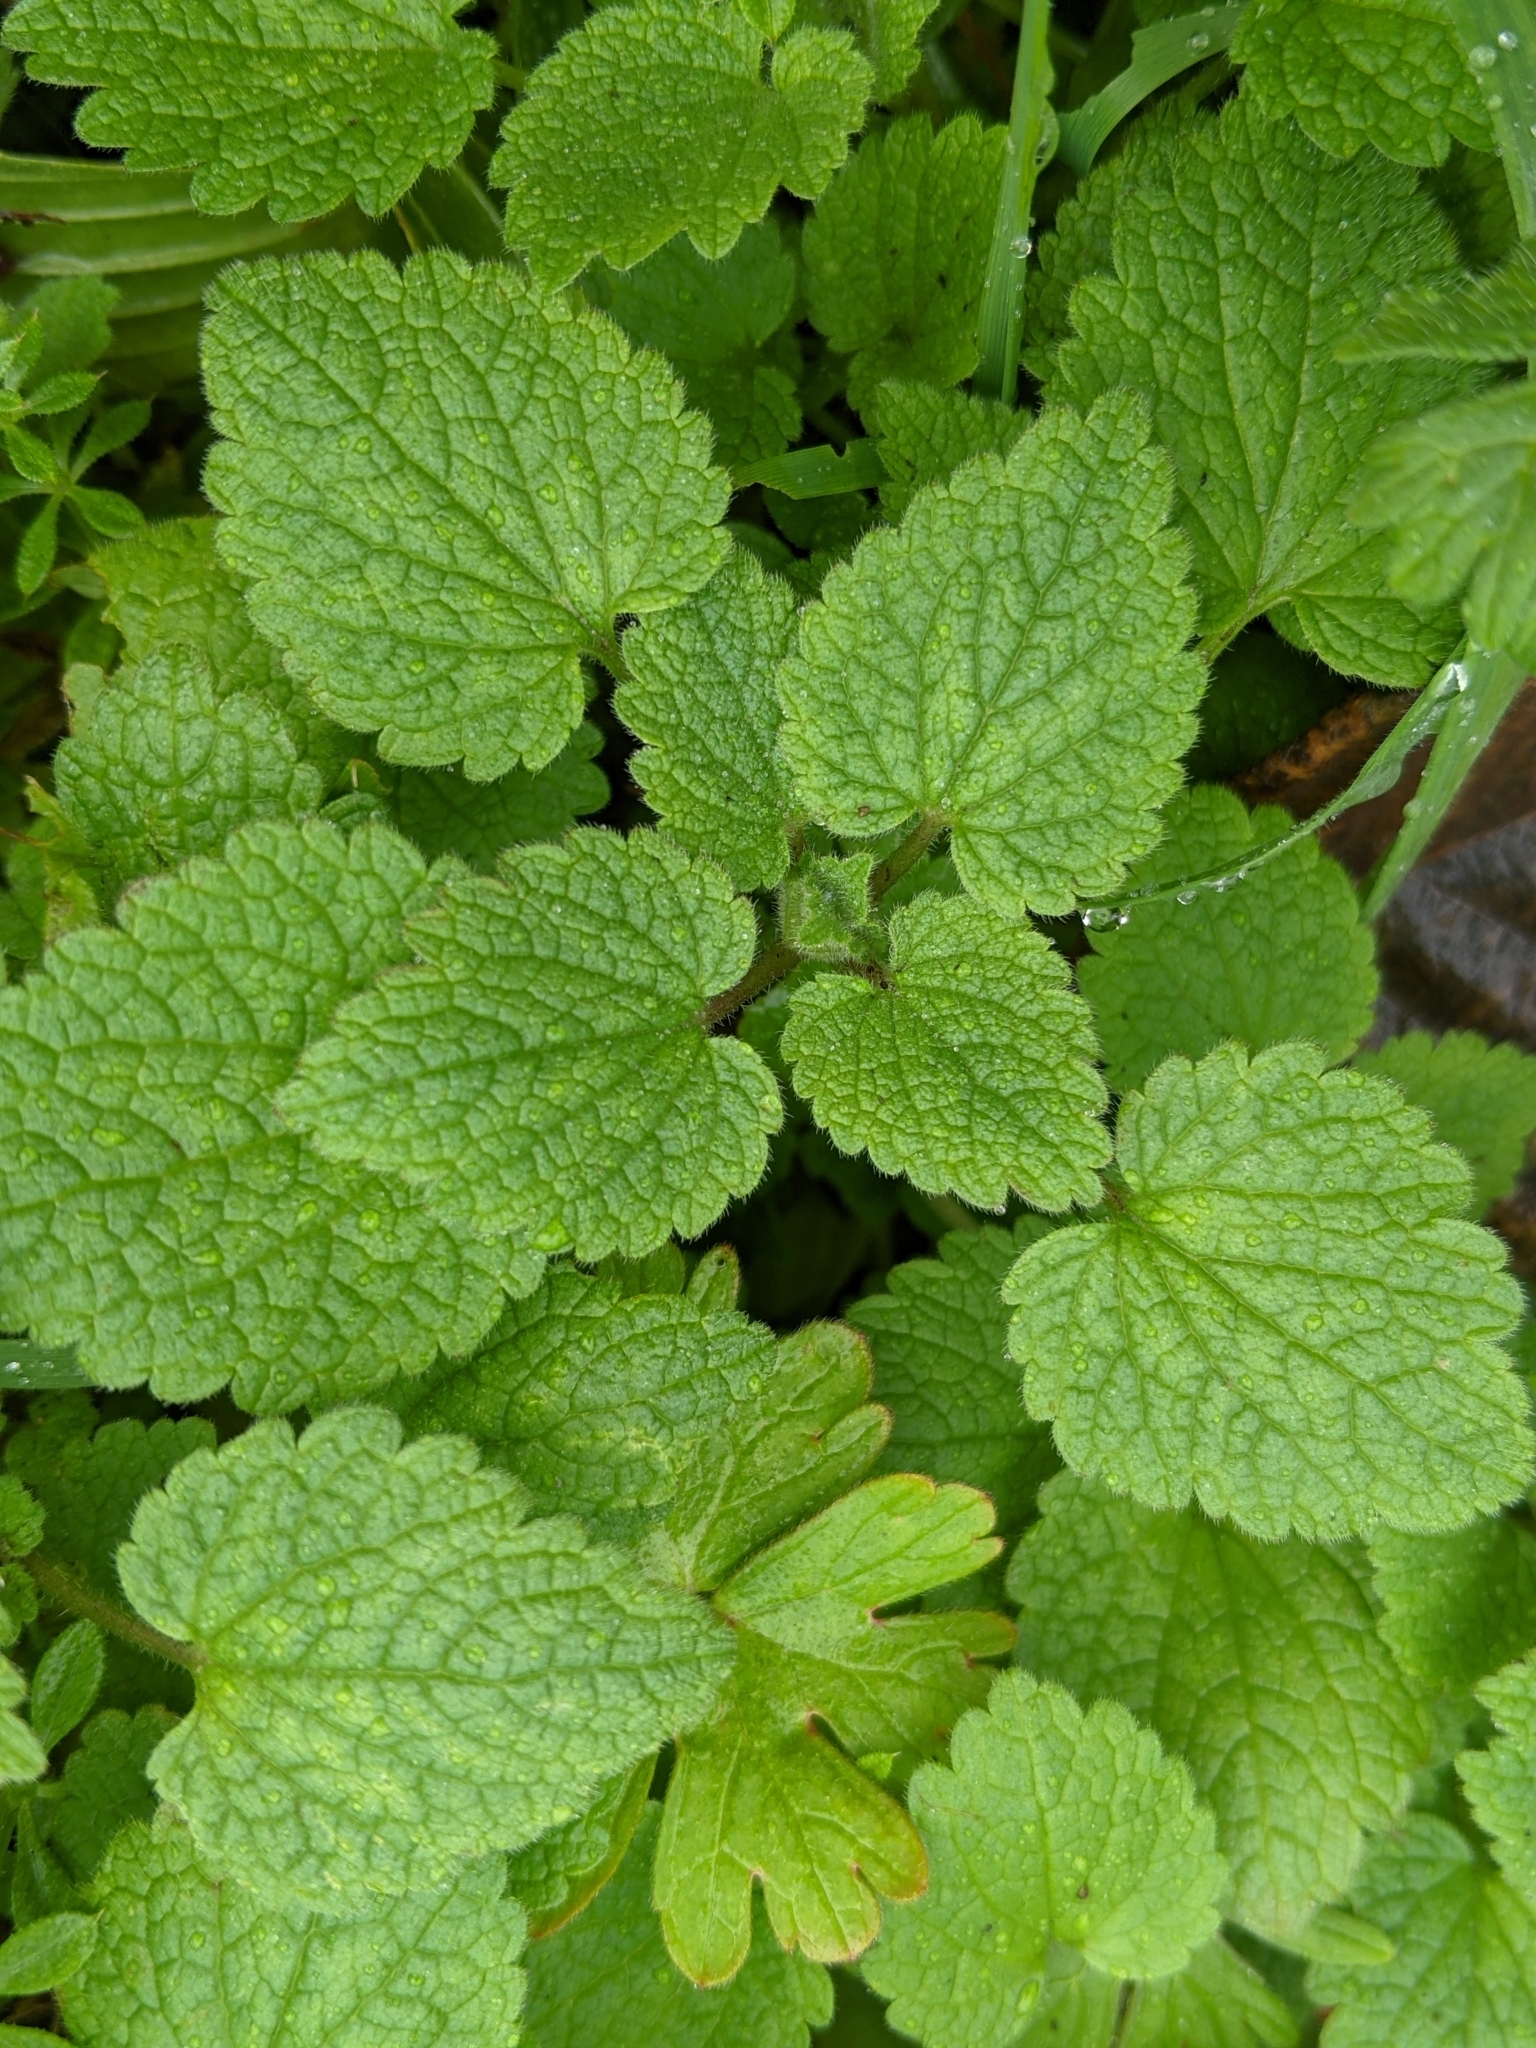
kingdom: Plantae
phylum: Tracheophyta
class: Magnoliopsida
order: Lamiales
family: Lamiaceae
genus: Lamium
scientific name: Lamium purpureum
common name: Red dead-nettle
